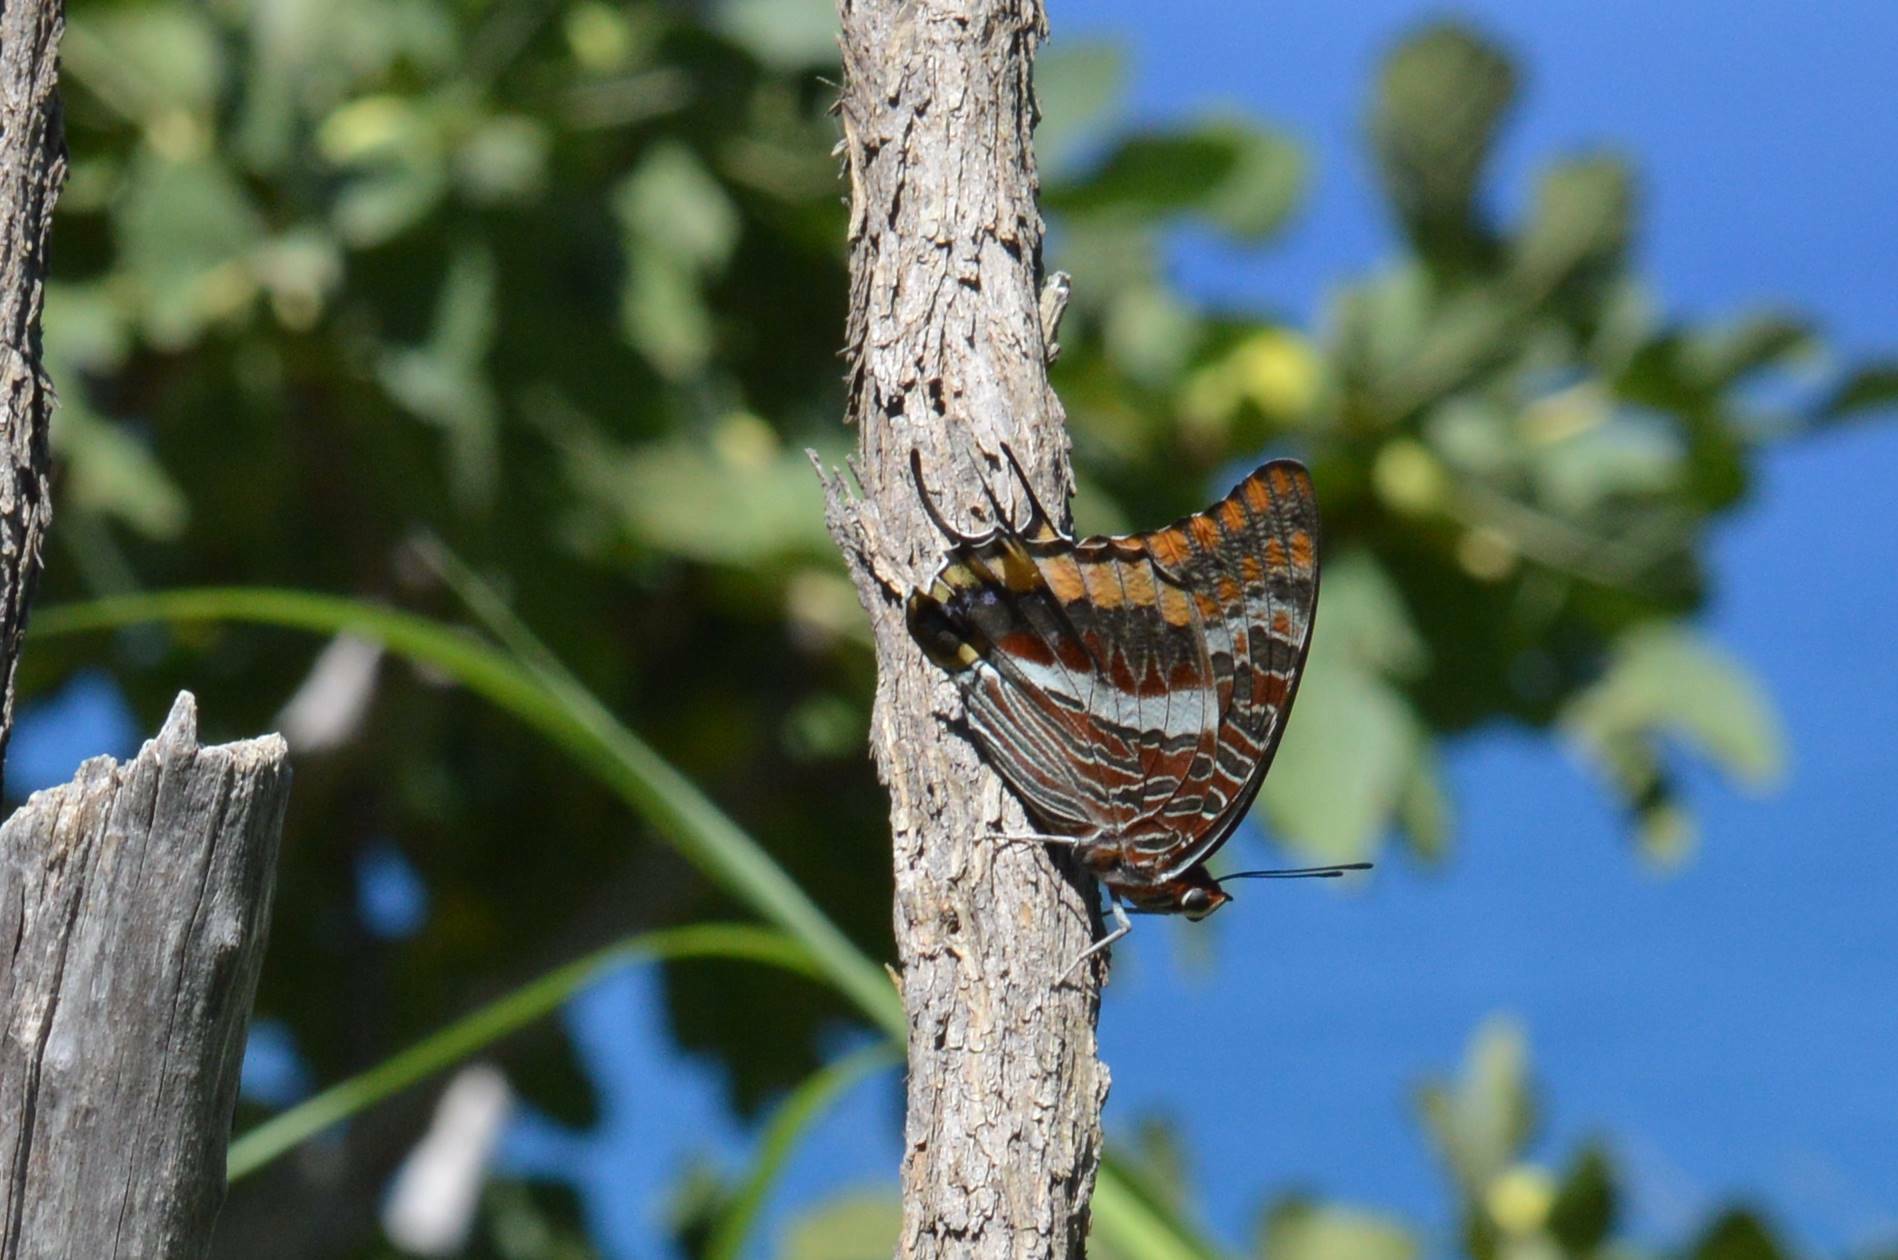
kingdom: Animalia
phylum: Arthropoda
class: Insecta
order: Lepidoptera
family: Nymphalidae
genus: Charaxes
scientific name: Charaxes jasius
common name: Two tailed pasha
